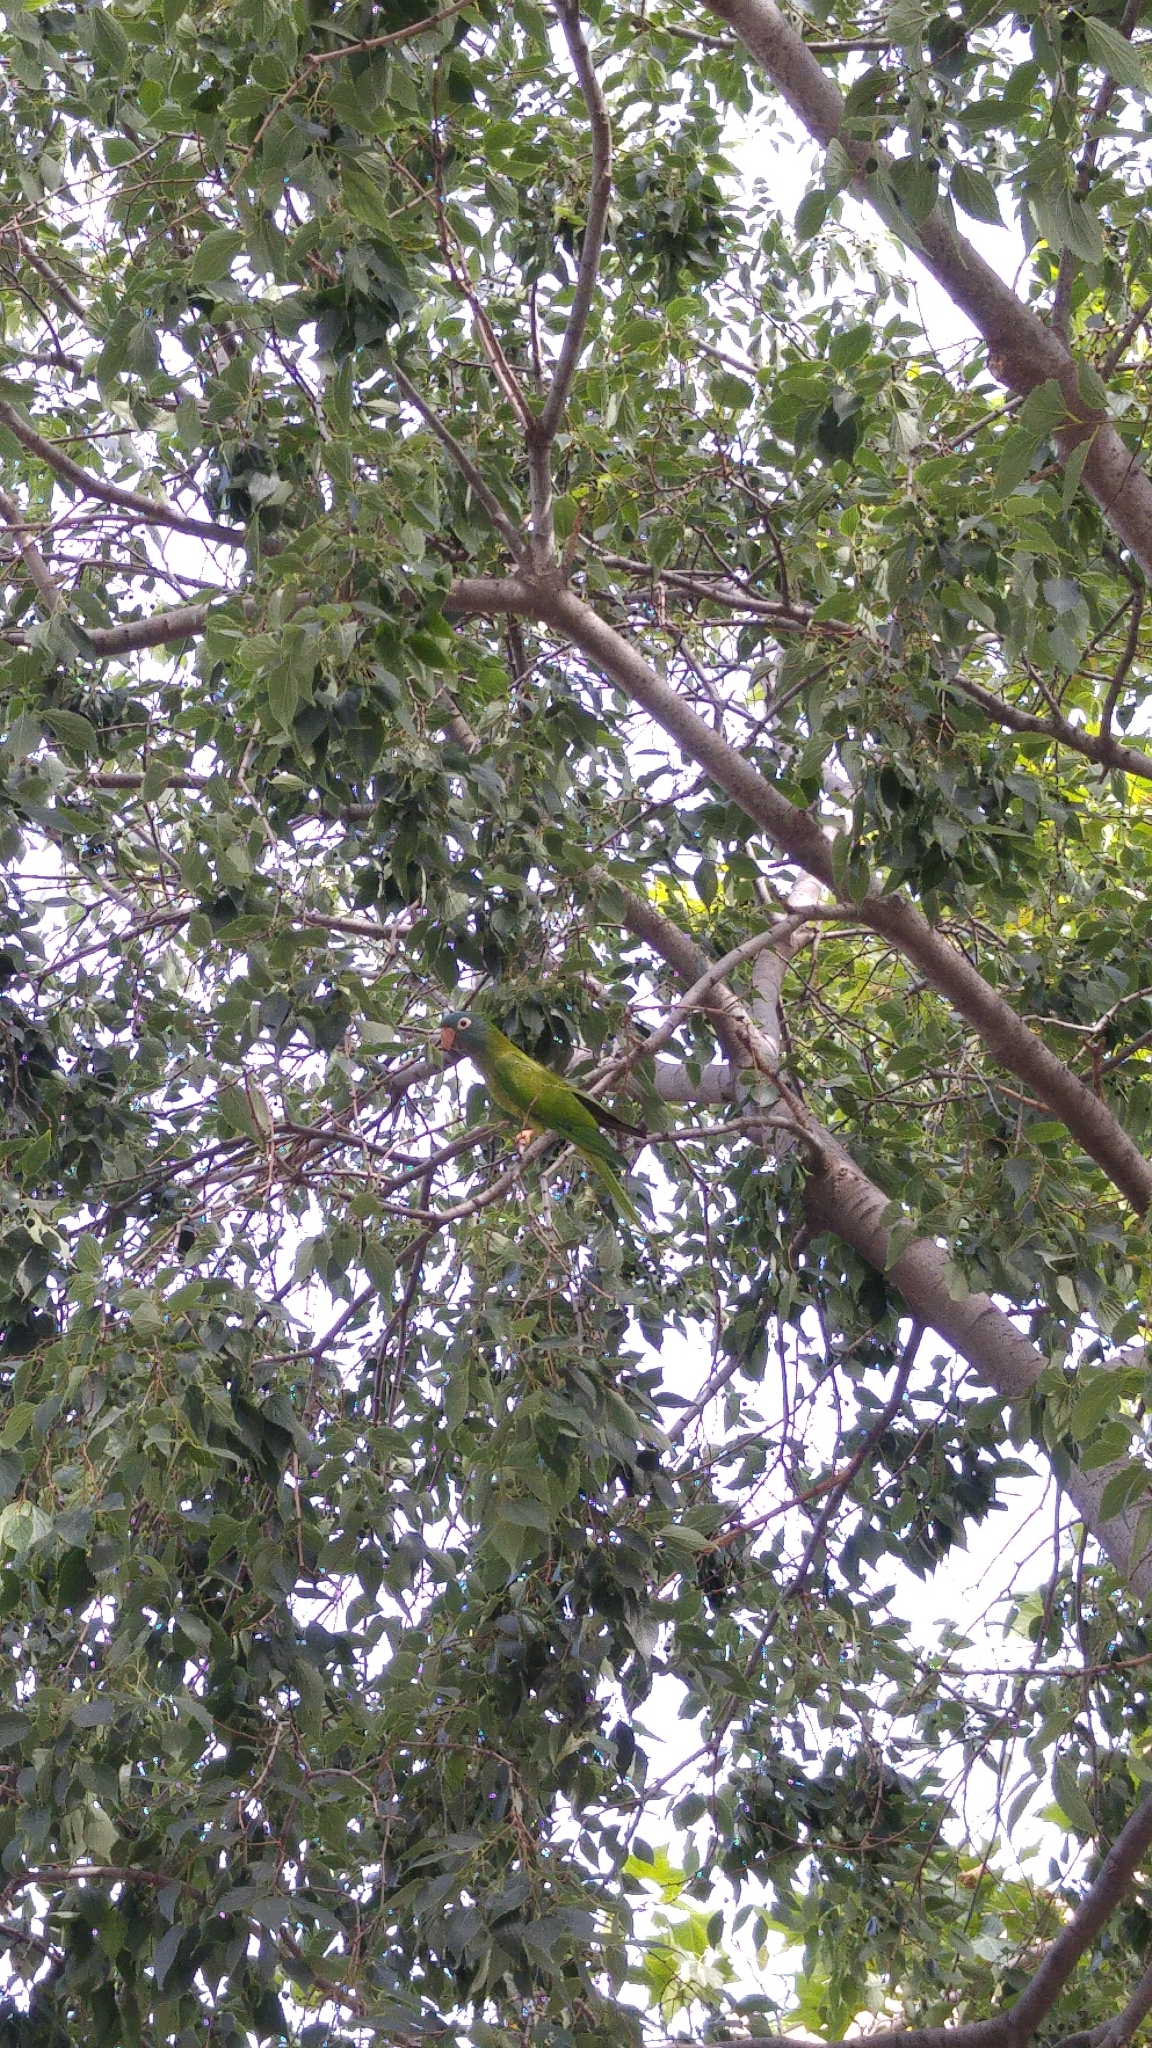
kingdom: Animalia
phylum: Chordata
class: Aves
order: Psittaciformes
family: Psittacidae
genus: Aratinga
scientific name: Aratinga acuticaudata
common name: Blue-crowned parakeet
